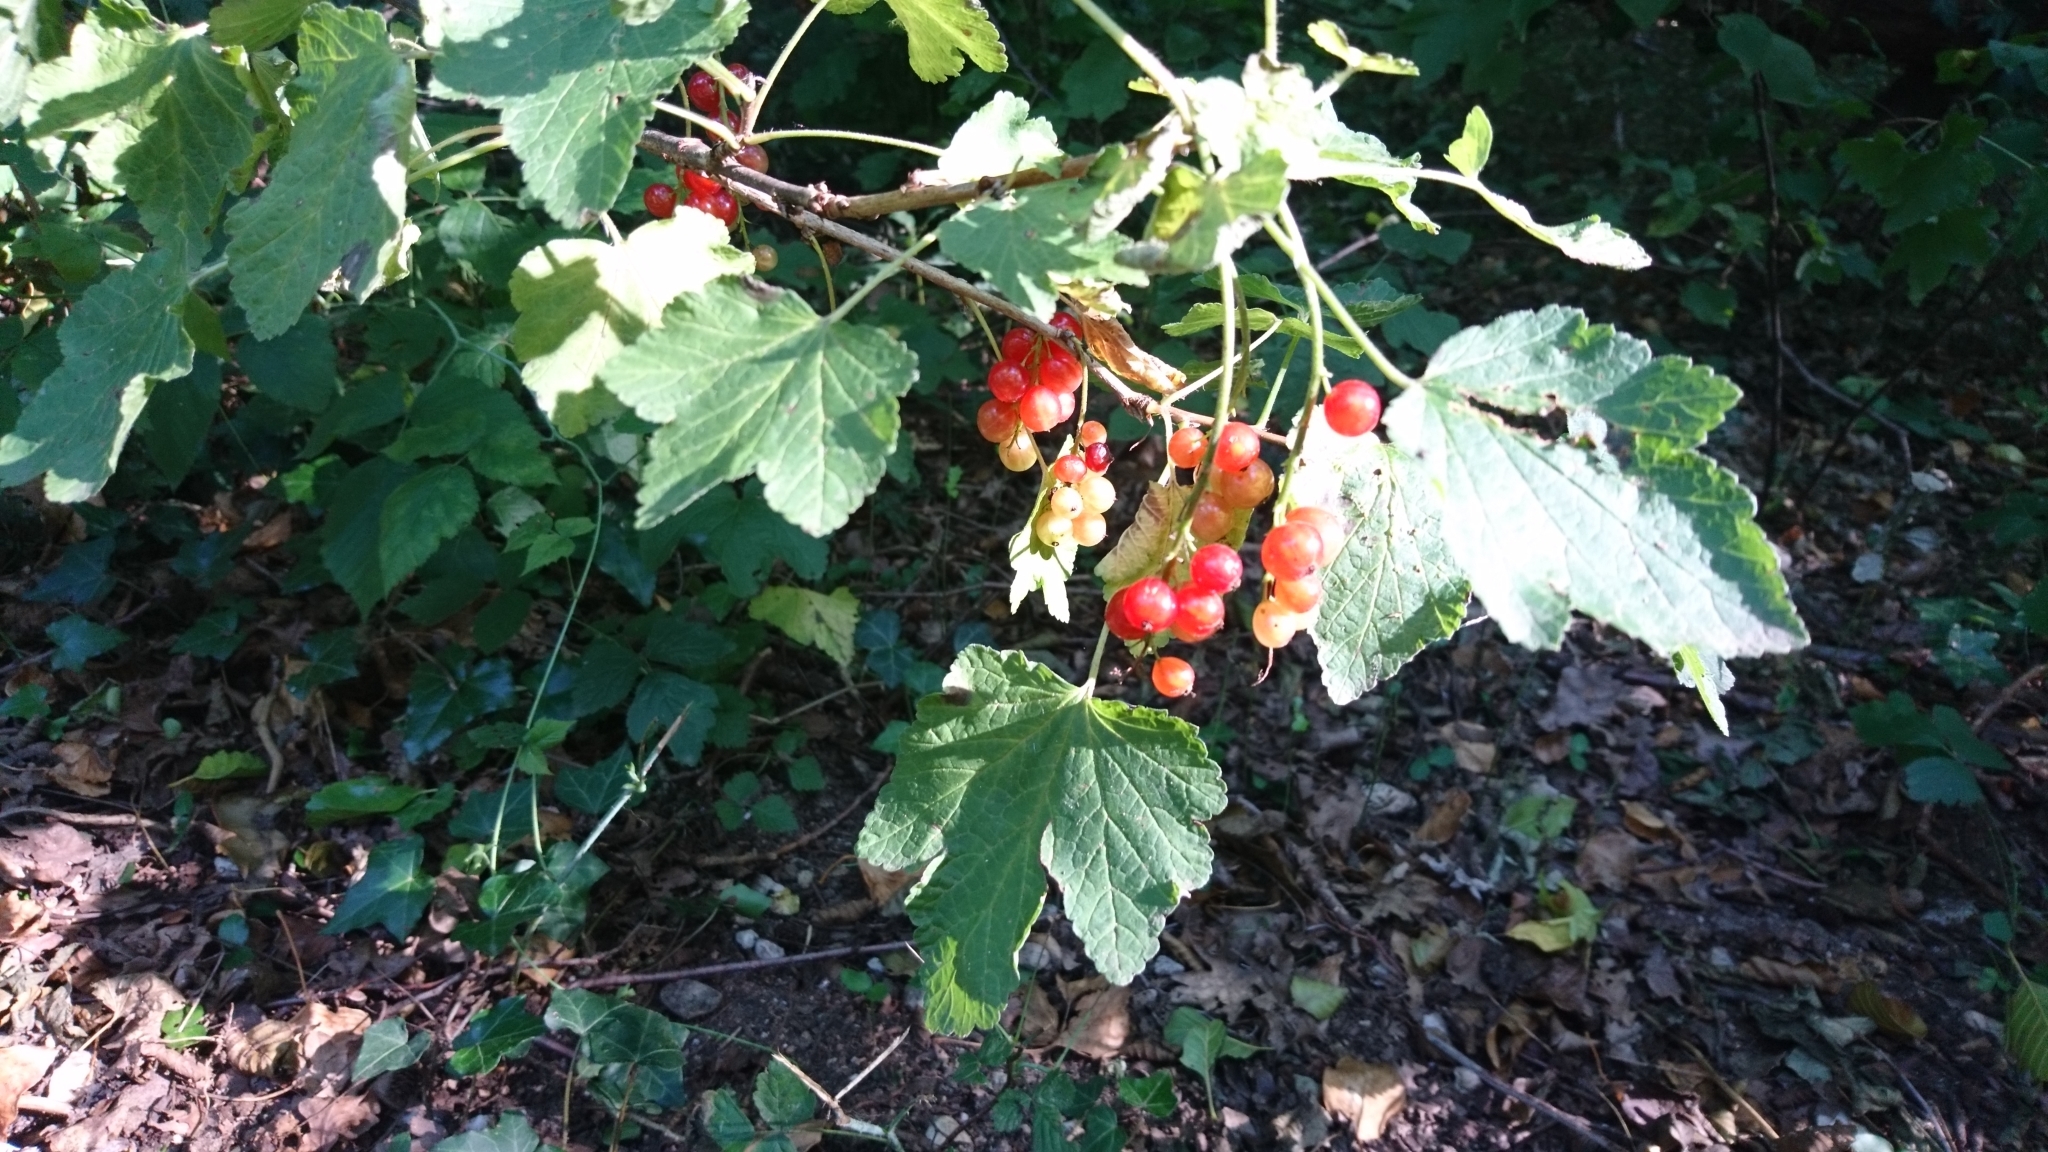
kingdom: Plantae
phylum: Tracheophyta
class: Magnoliopsida
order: Saxifragales
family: Grossulariaceae
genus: Ribes
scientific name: Ribes rubrum
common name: Red currant
